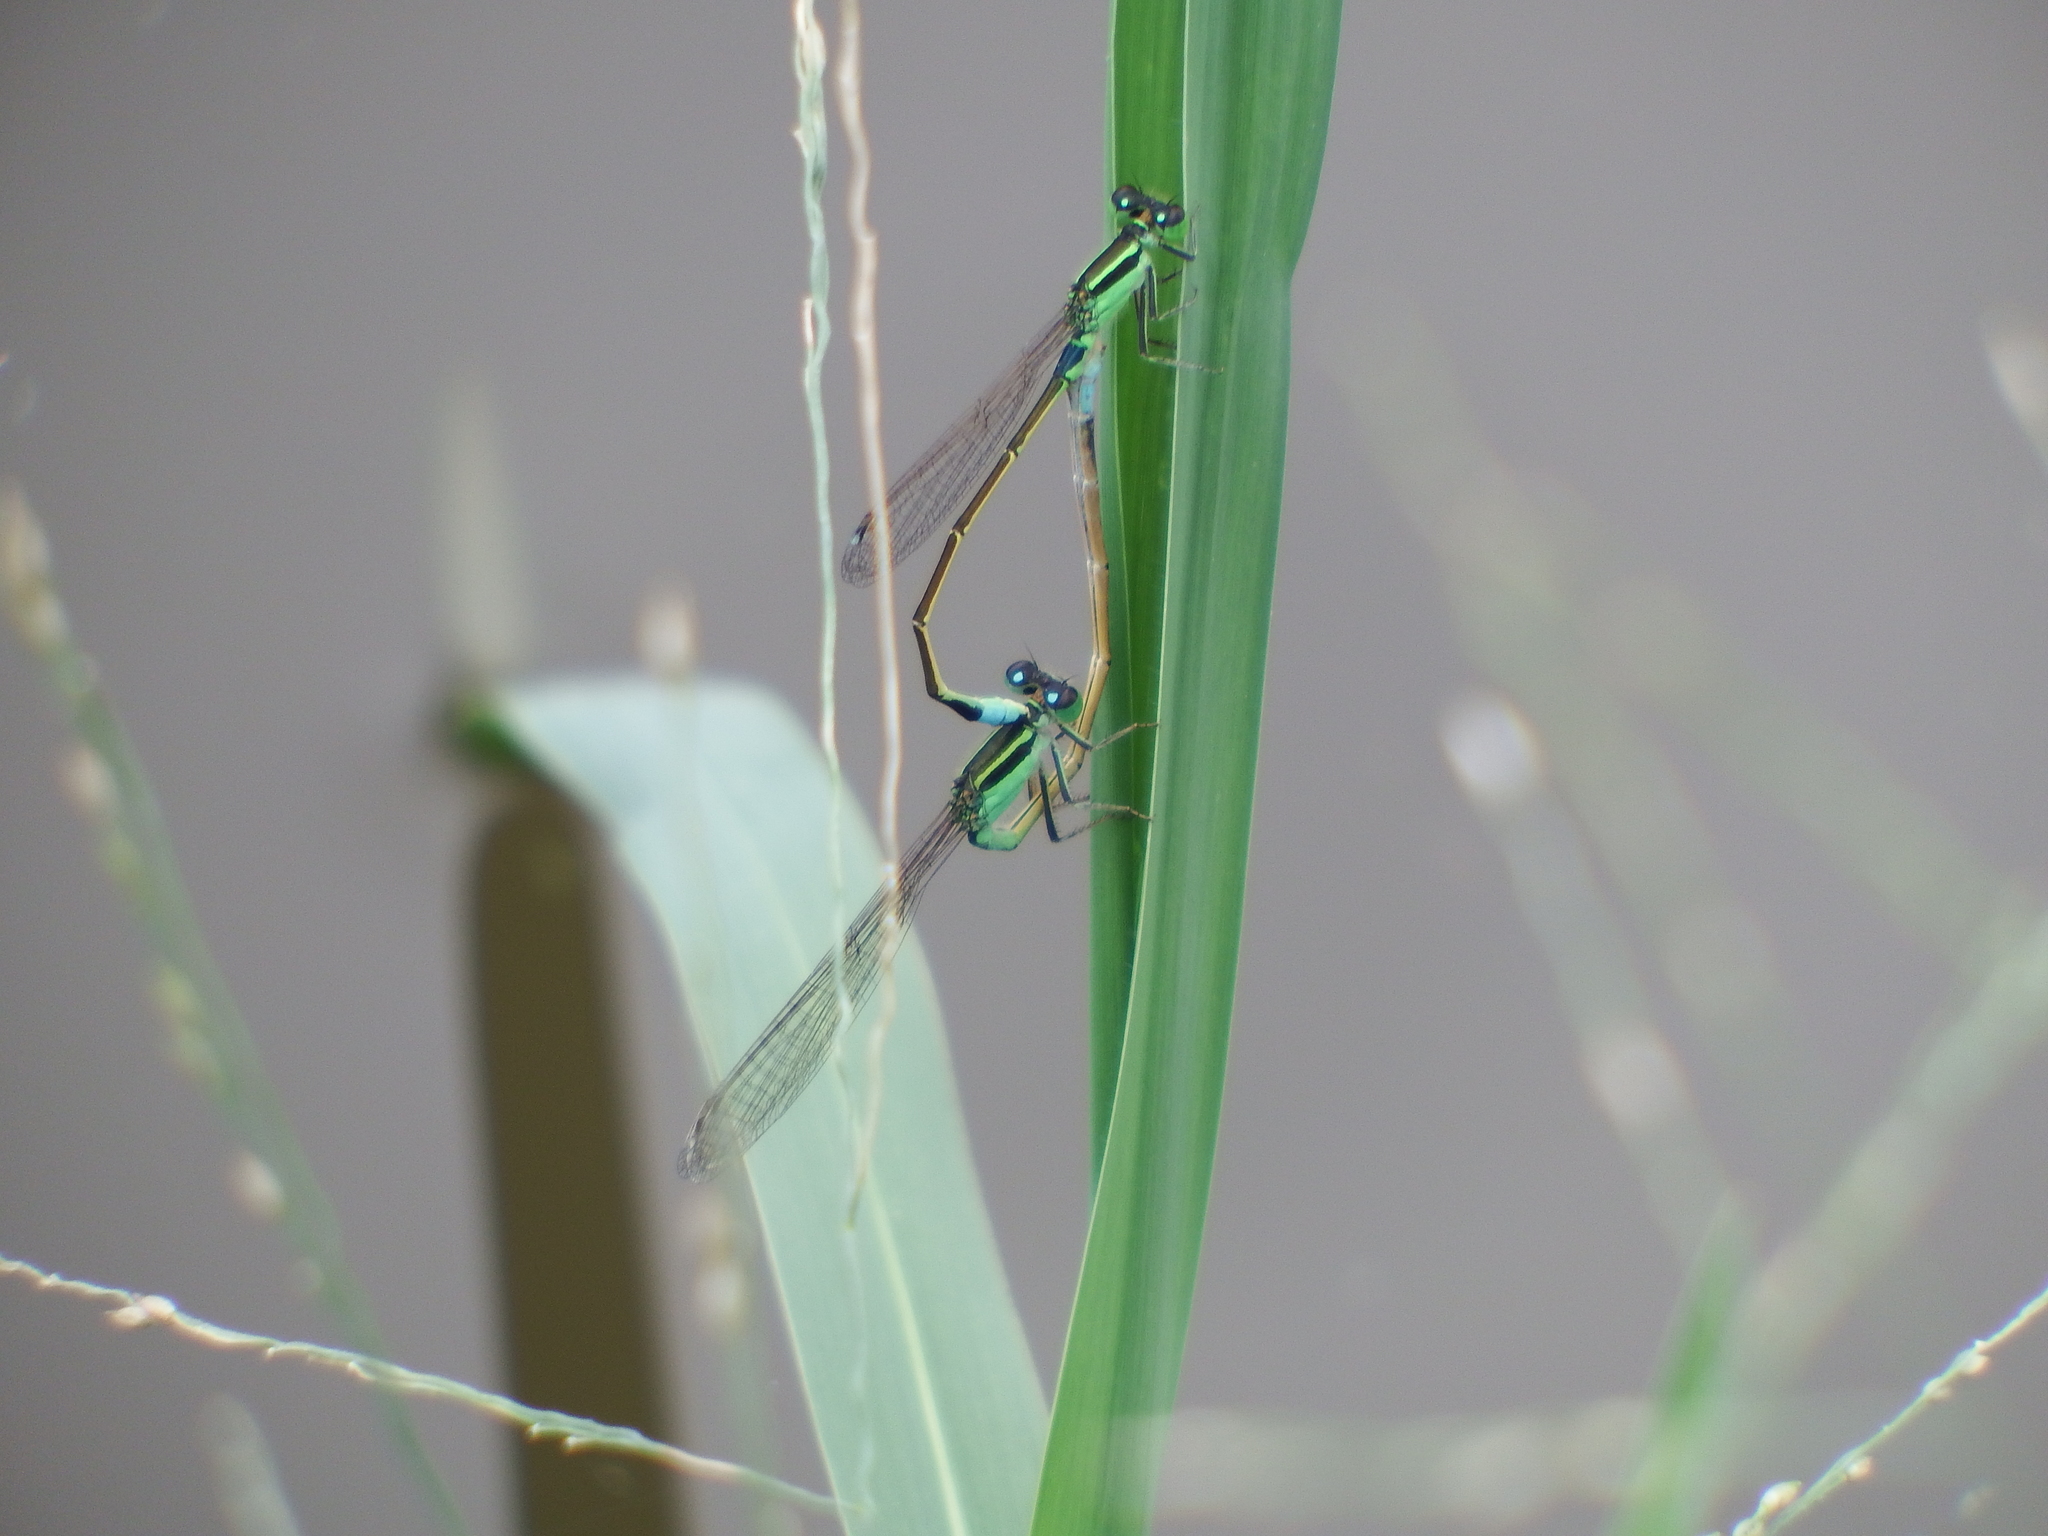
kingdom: Animalia
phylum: Arthropoda
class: Insecta
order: Odonata
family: Coenagrionidae
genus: Ischnura
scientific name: Ischnura senegalensis
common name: Tropical bluetail
